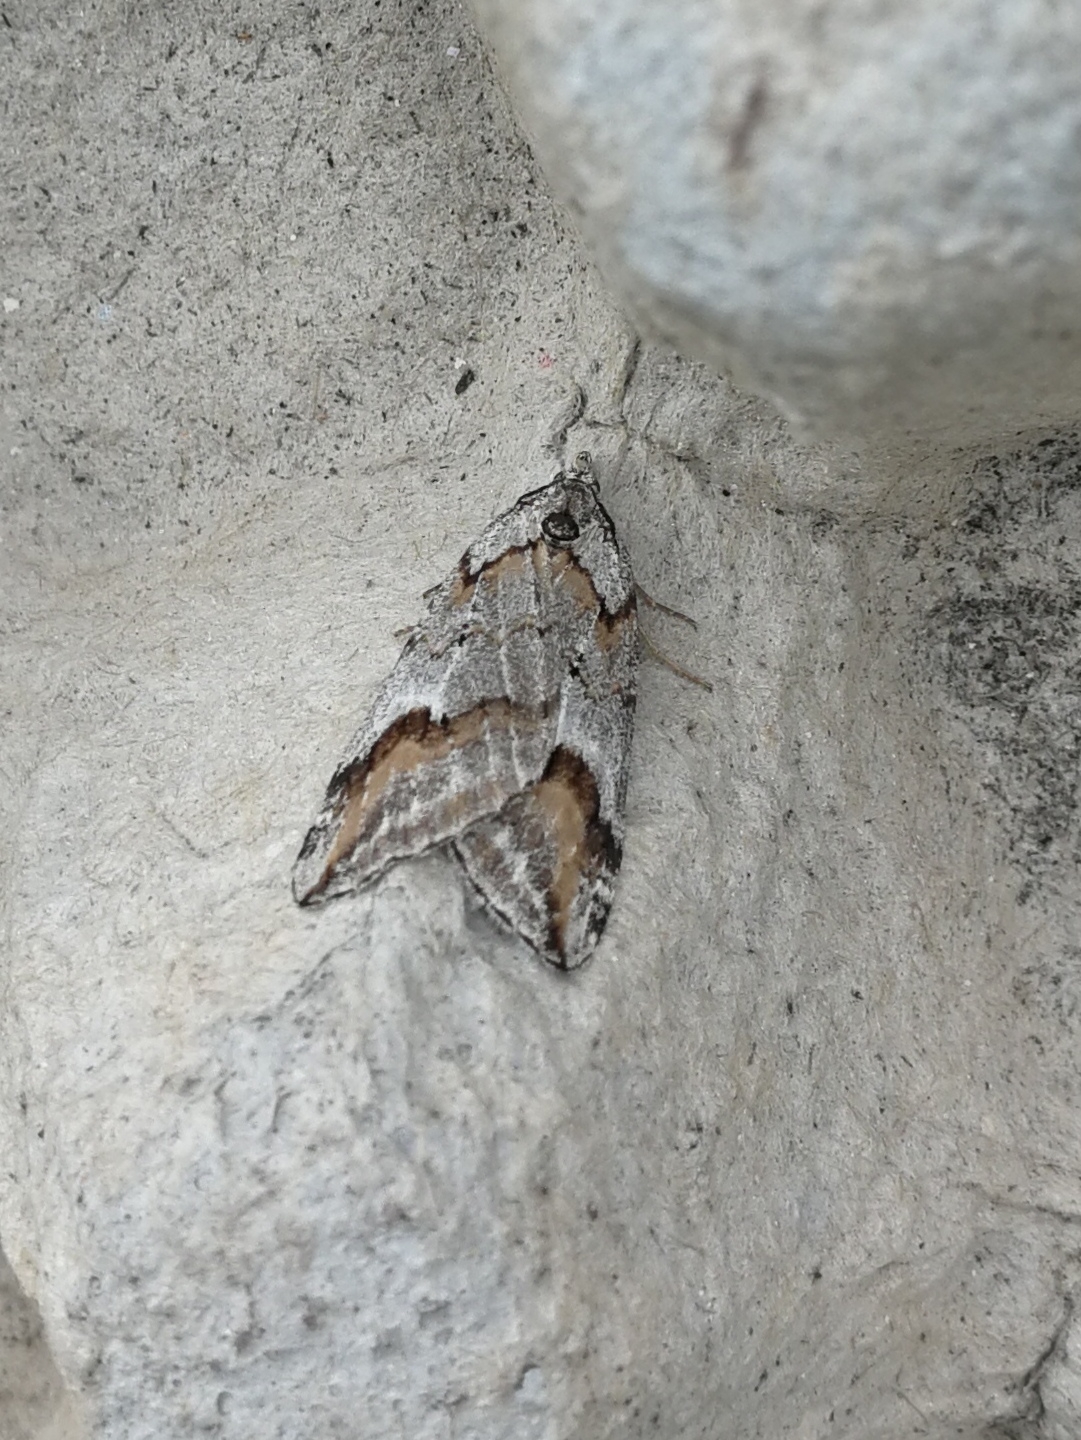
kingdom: Animalia
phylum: Arthropoda
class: Insecta
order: Lepidoptera
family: Geometridae
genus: Chesias
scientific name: Chesias rufata
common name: Broom-tip
